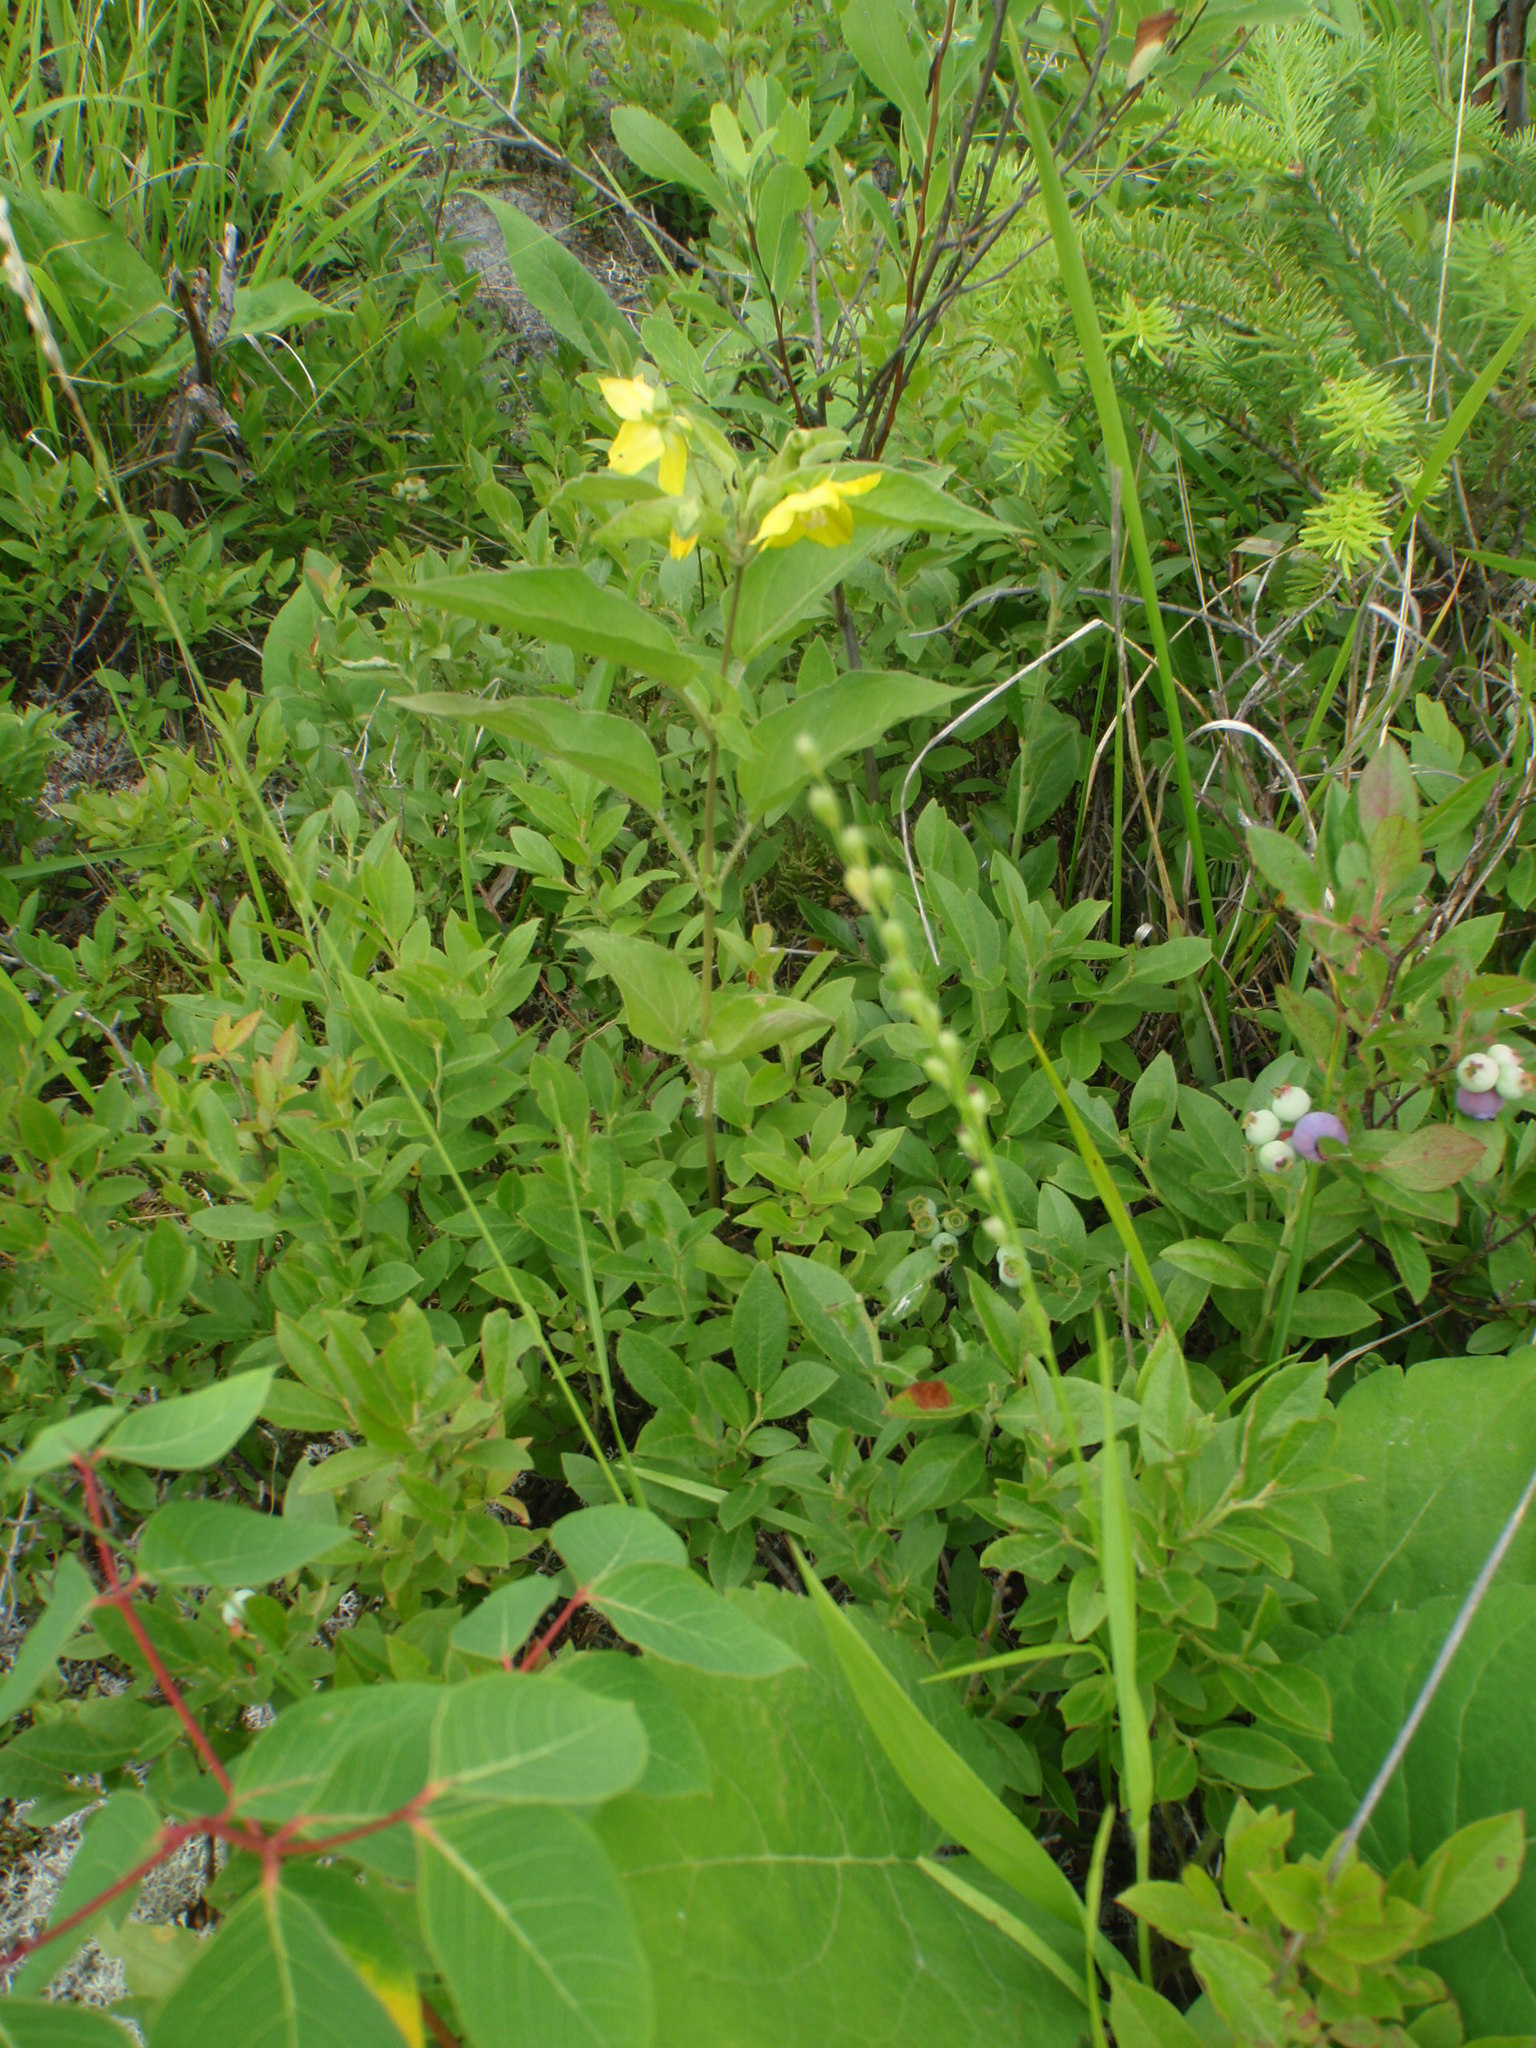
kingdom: Plantae
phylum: Tracheophyta
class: Magnoliopsida
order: Ericales
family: Primulaceae
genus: Lysimachia
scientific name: Lysimachia ciliata
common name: Fringed loosestrife
